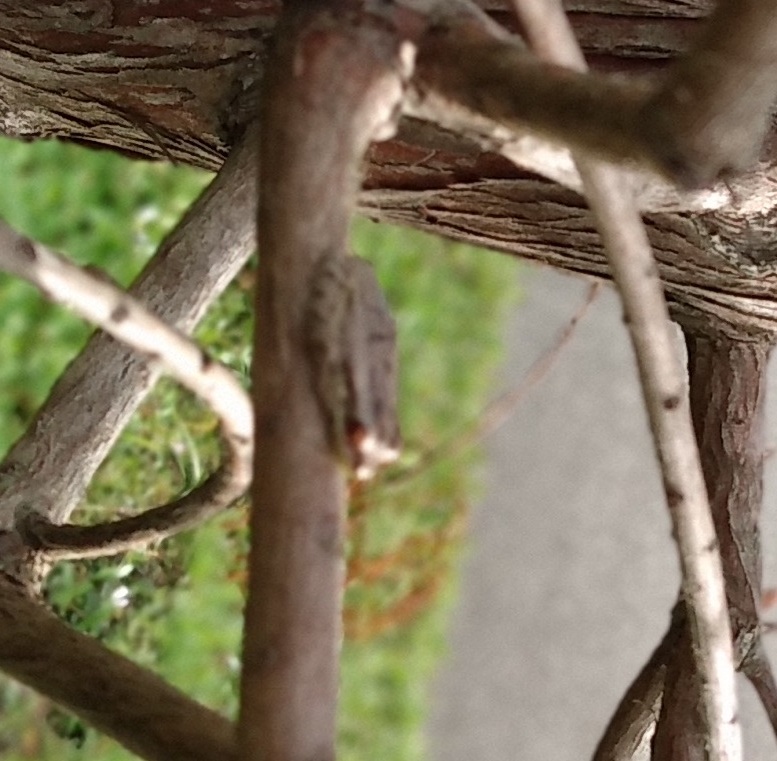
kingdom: Animalia
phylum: Chordata
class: Amphibia
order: Anura
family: Hylidae
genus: Osteopilus
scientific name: Osteopilus septentrionalis
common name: Cuban treefrog
